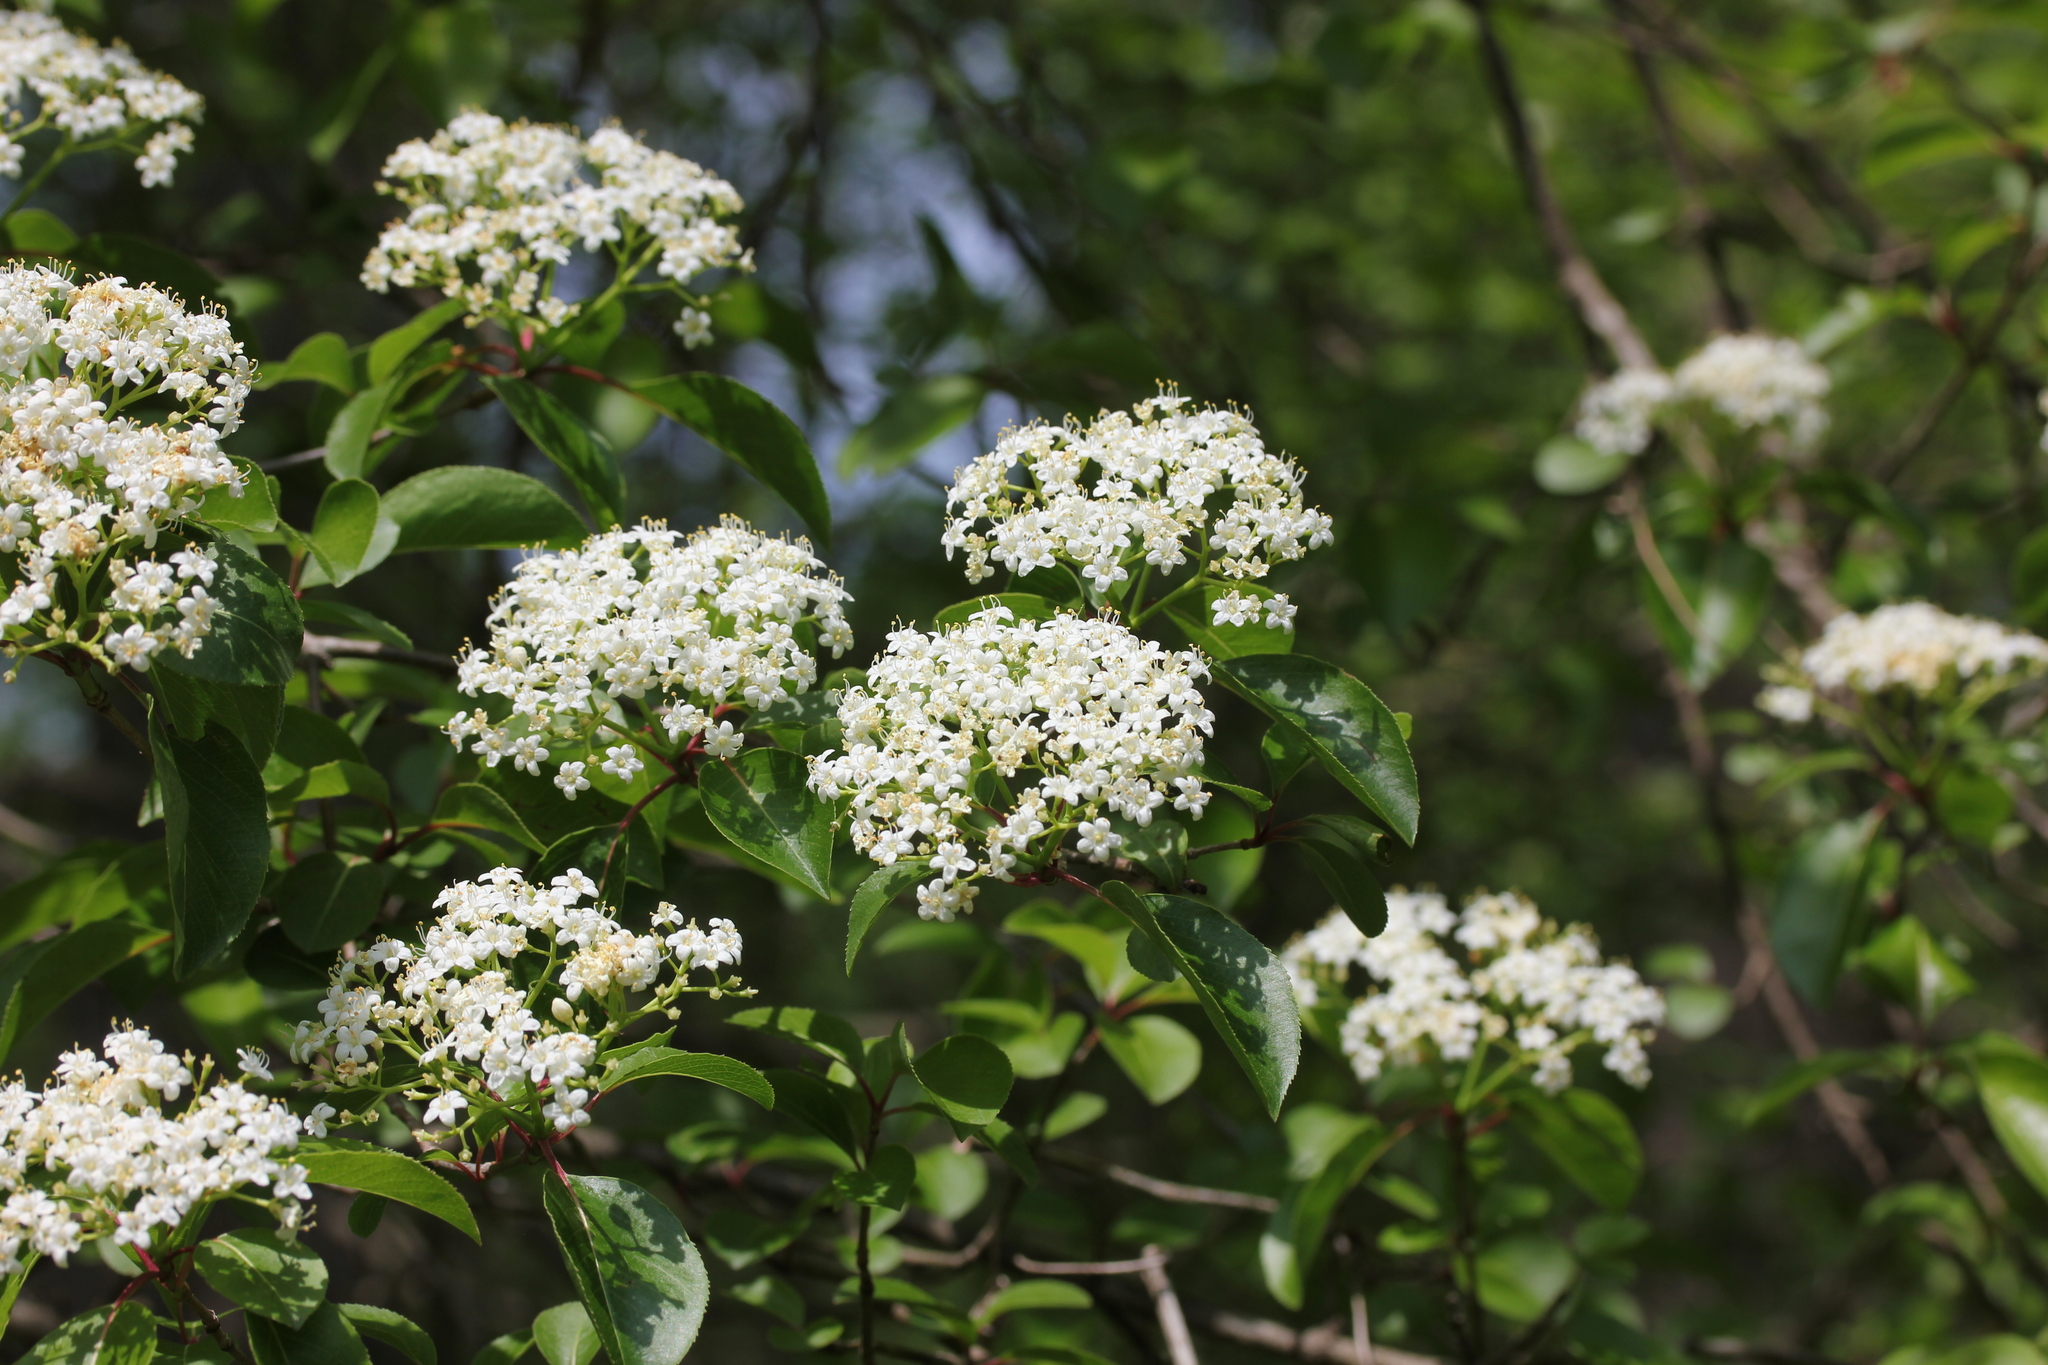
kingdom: Plantae
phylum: Tracheophyta
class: Magnoliopsida
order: Dipsacales
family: Viburnaceae
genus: Viburnum
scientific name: Viburnum prunifolium
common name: Black haw
